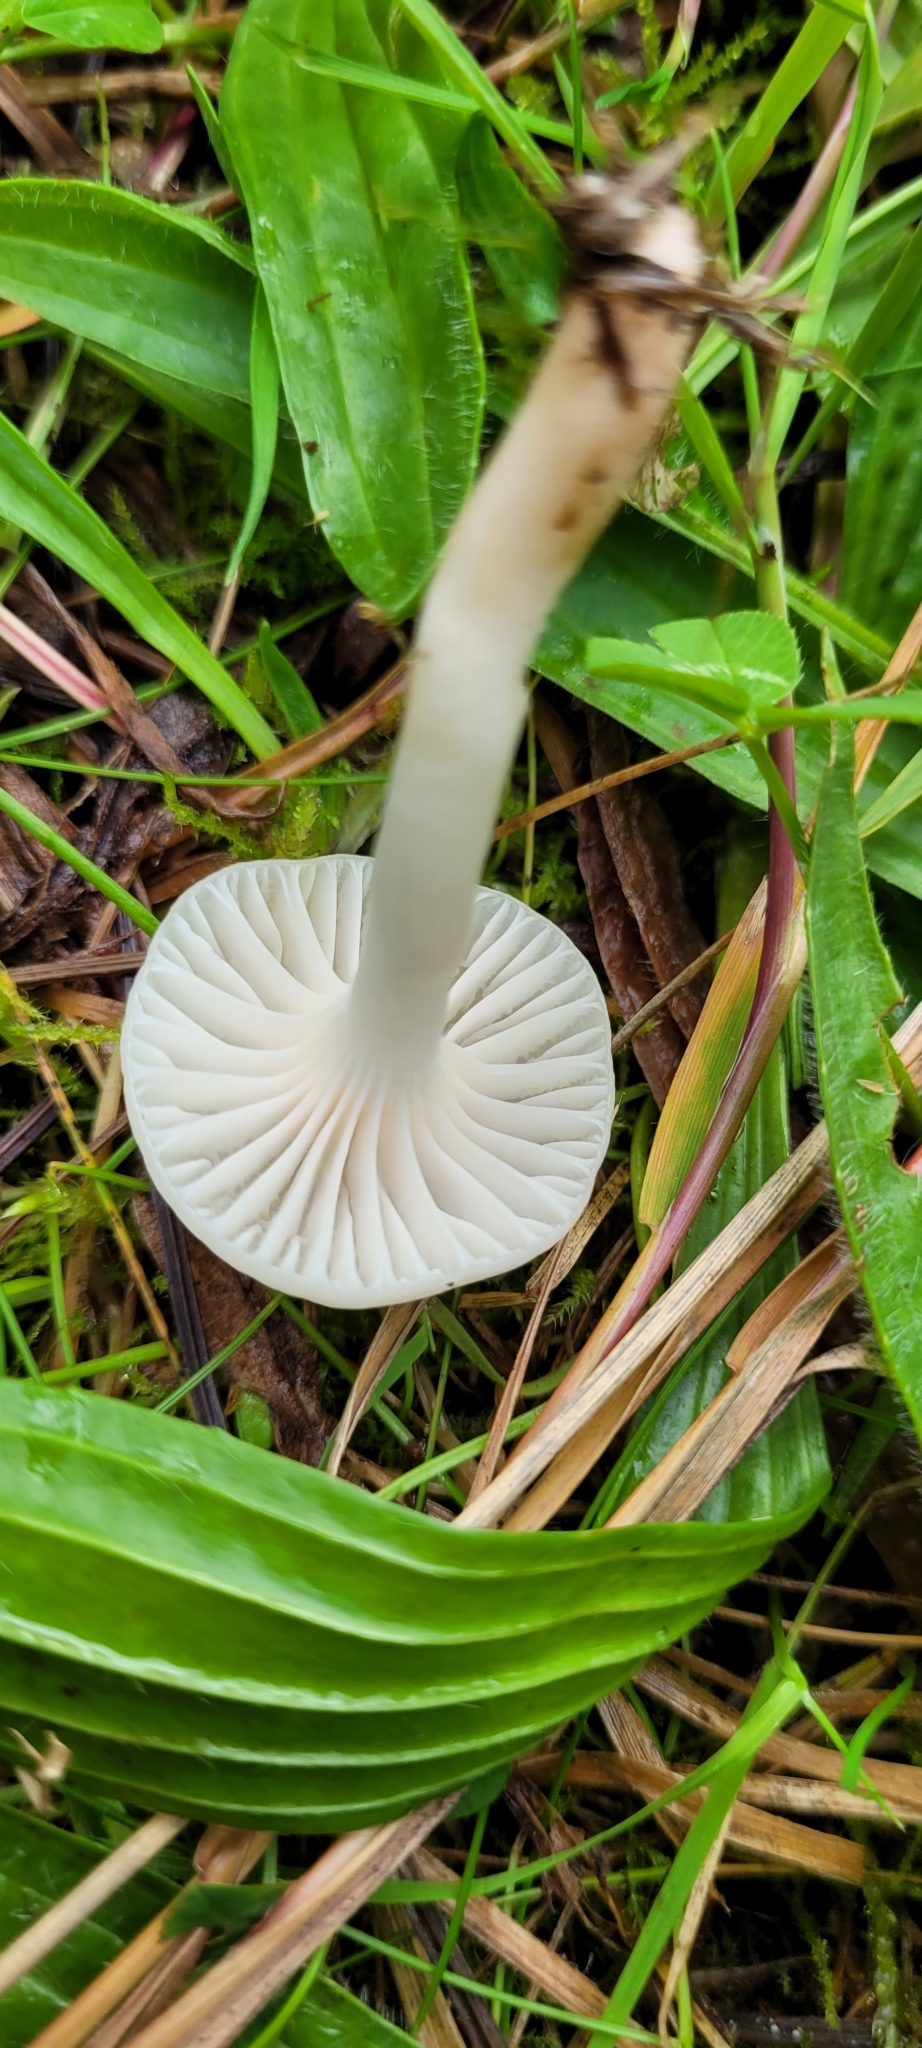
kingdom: Fungi
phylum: Basidiomycota
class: Agaricomycetes
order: Agaricales
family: Hygrophoraceae
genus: Cuphophyllus
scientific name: Cuphophyllus virgineus
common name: Snowy waxcap
